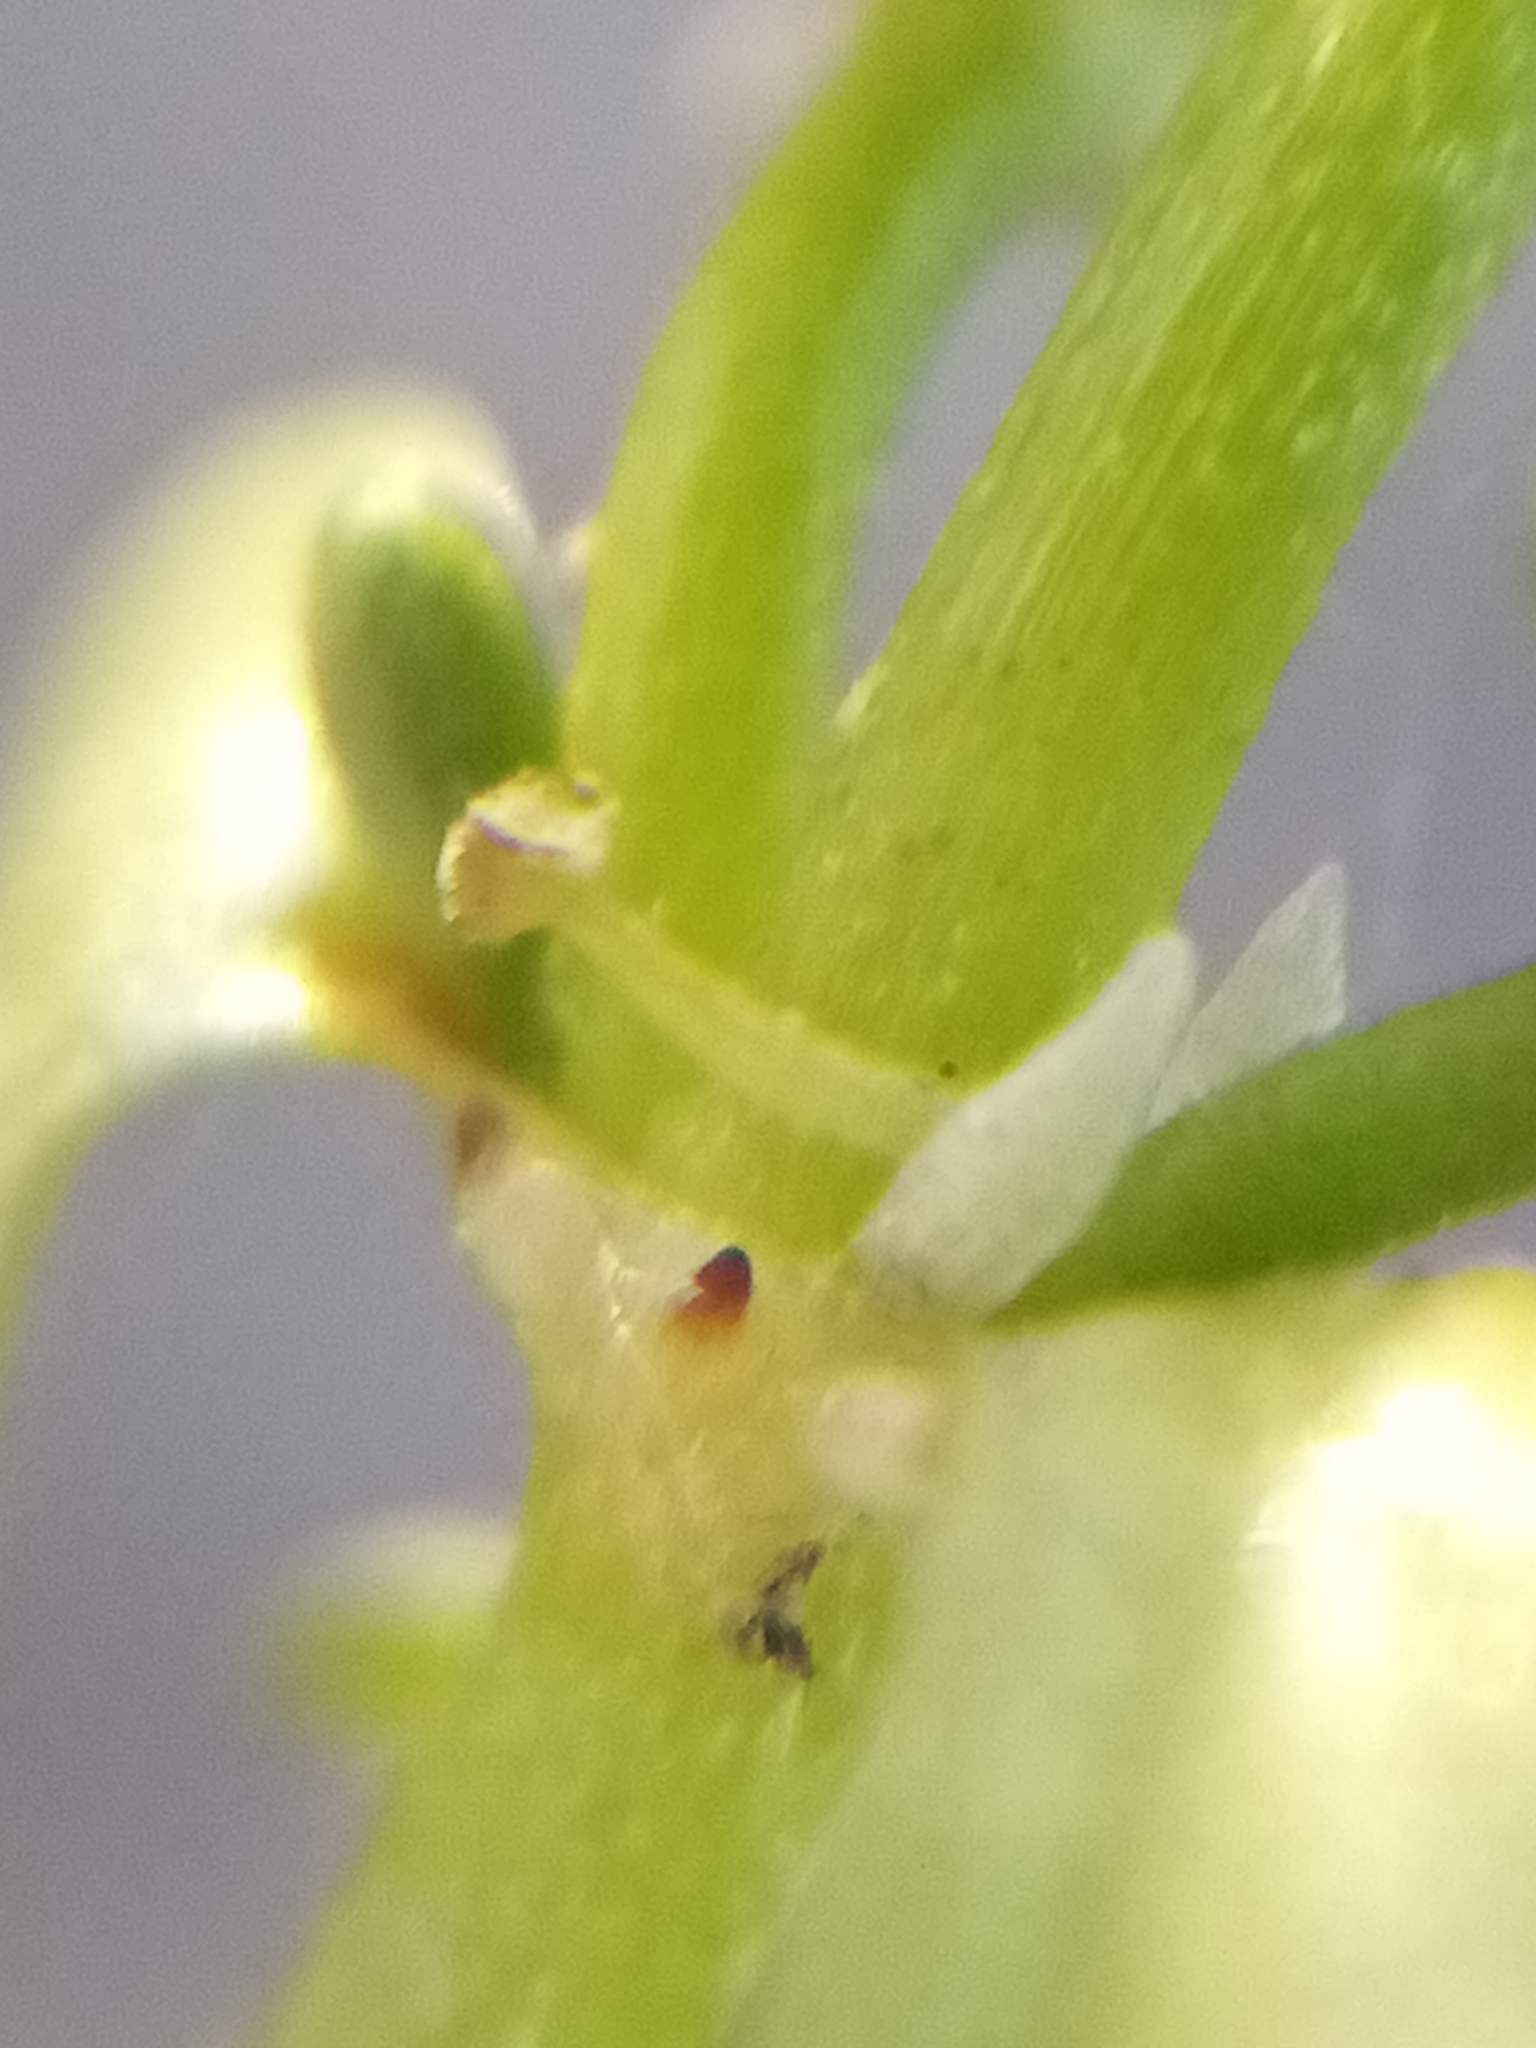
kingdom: Plantae
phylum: Tracheophyta
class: Magnoliopsida
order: Lamiales
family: Plantaginaceae
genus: Callitriche
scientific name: Callitriche stagnalis
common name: Common water-starwort
